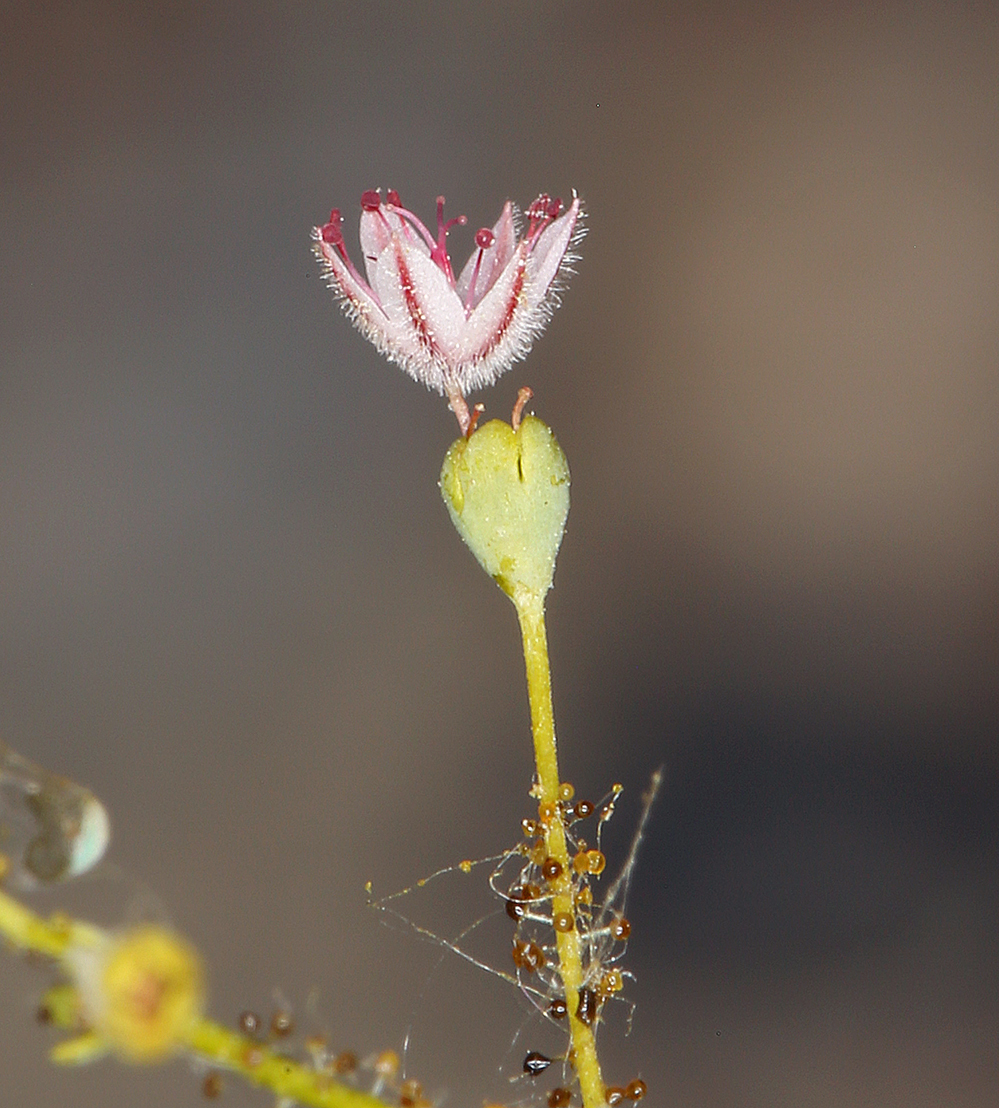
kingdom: Plantae
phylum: Tracheophyta
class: Magnoliopsida
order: Caryophyllales
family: Polygonaceae
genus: Eriogonum
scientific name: Eriogonum glandulosum
